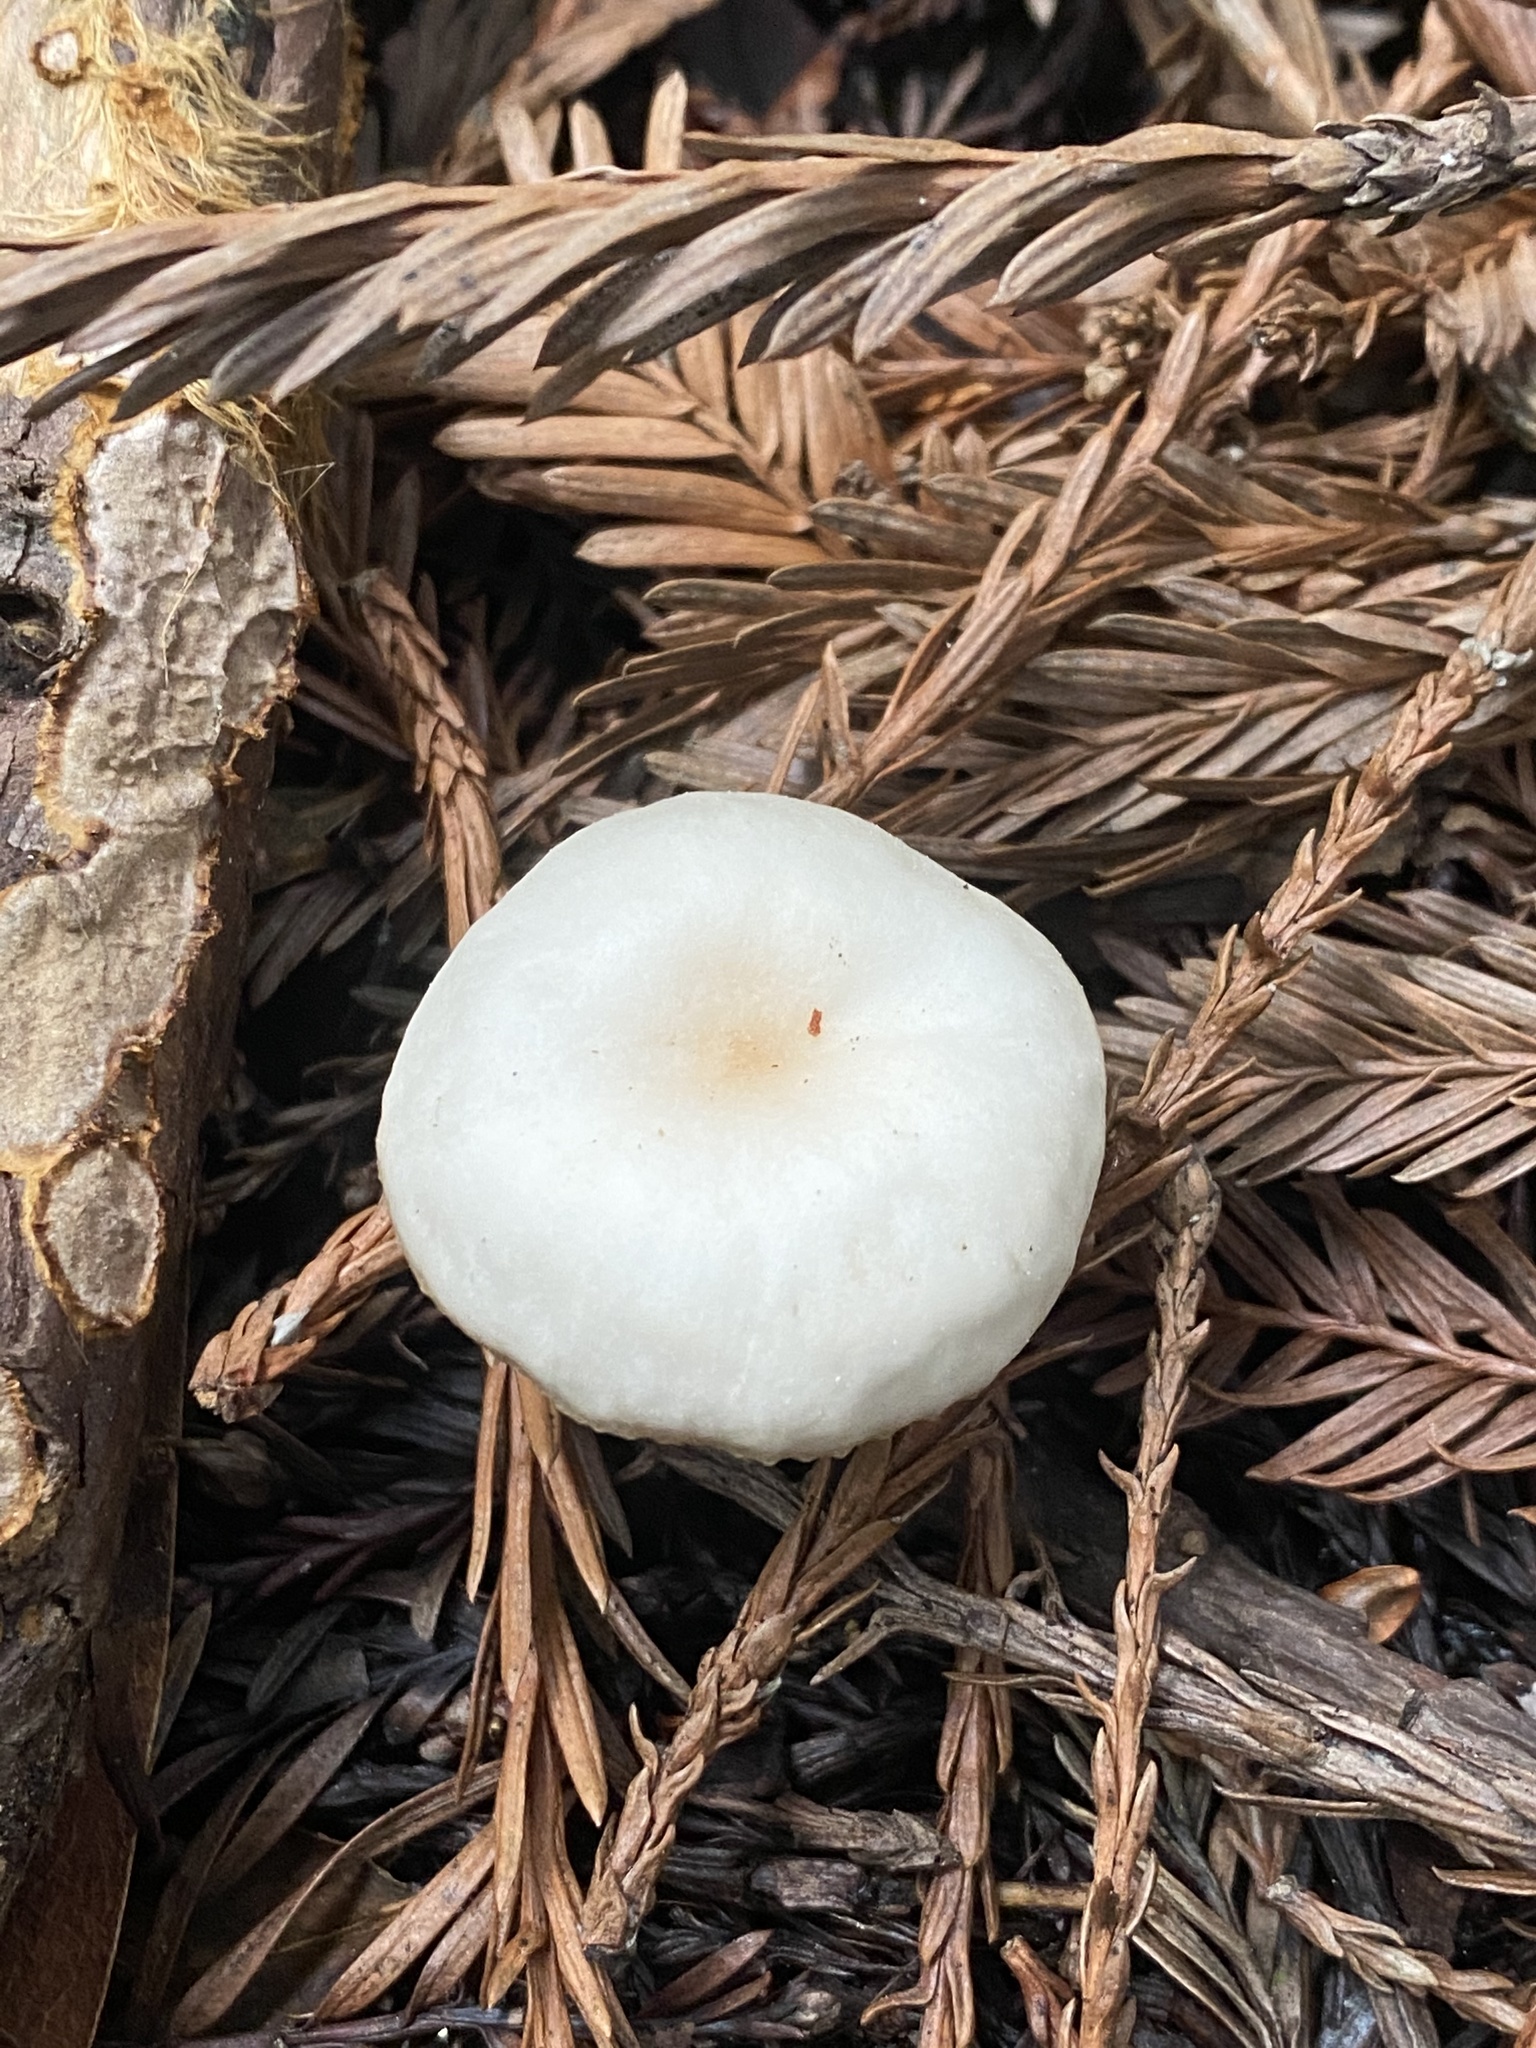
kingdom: Fungi
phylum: Basidiomycota
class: Agaricomycetes
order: Agaricales
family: Tricholomataceae
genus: Clitocybe
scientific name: Clitocybe fragrans
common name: Fragrant funnel
